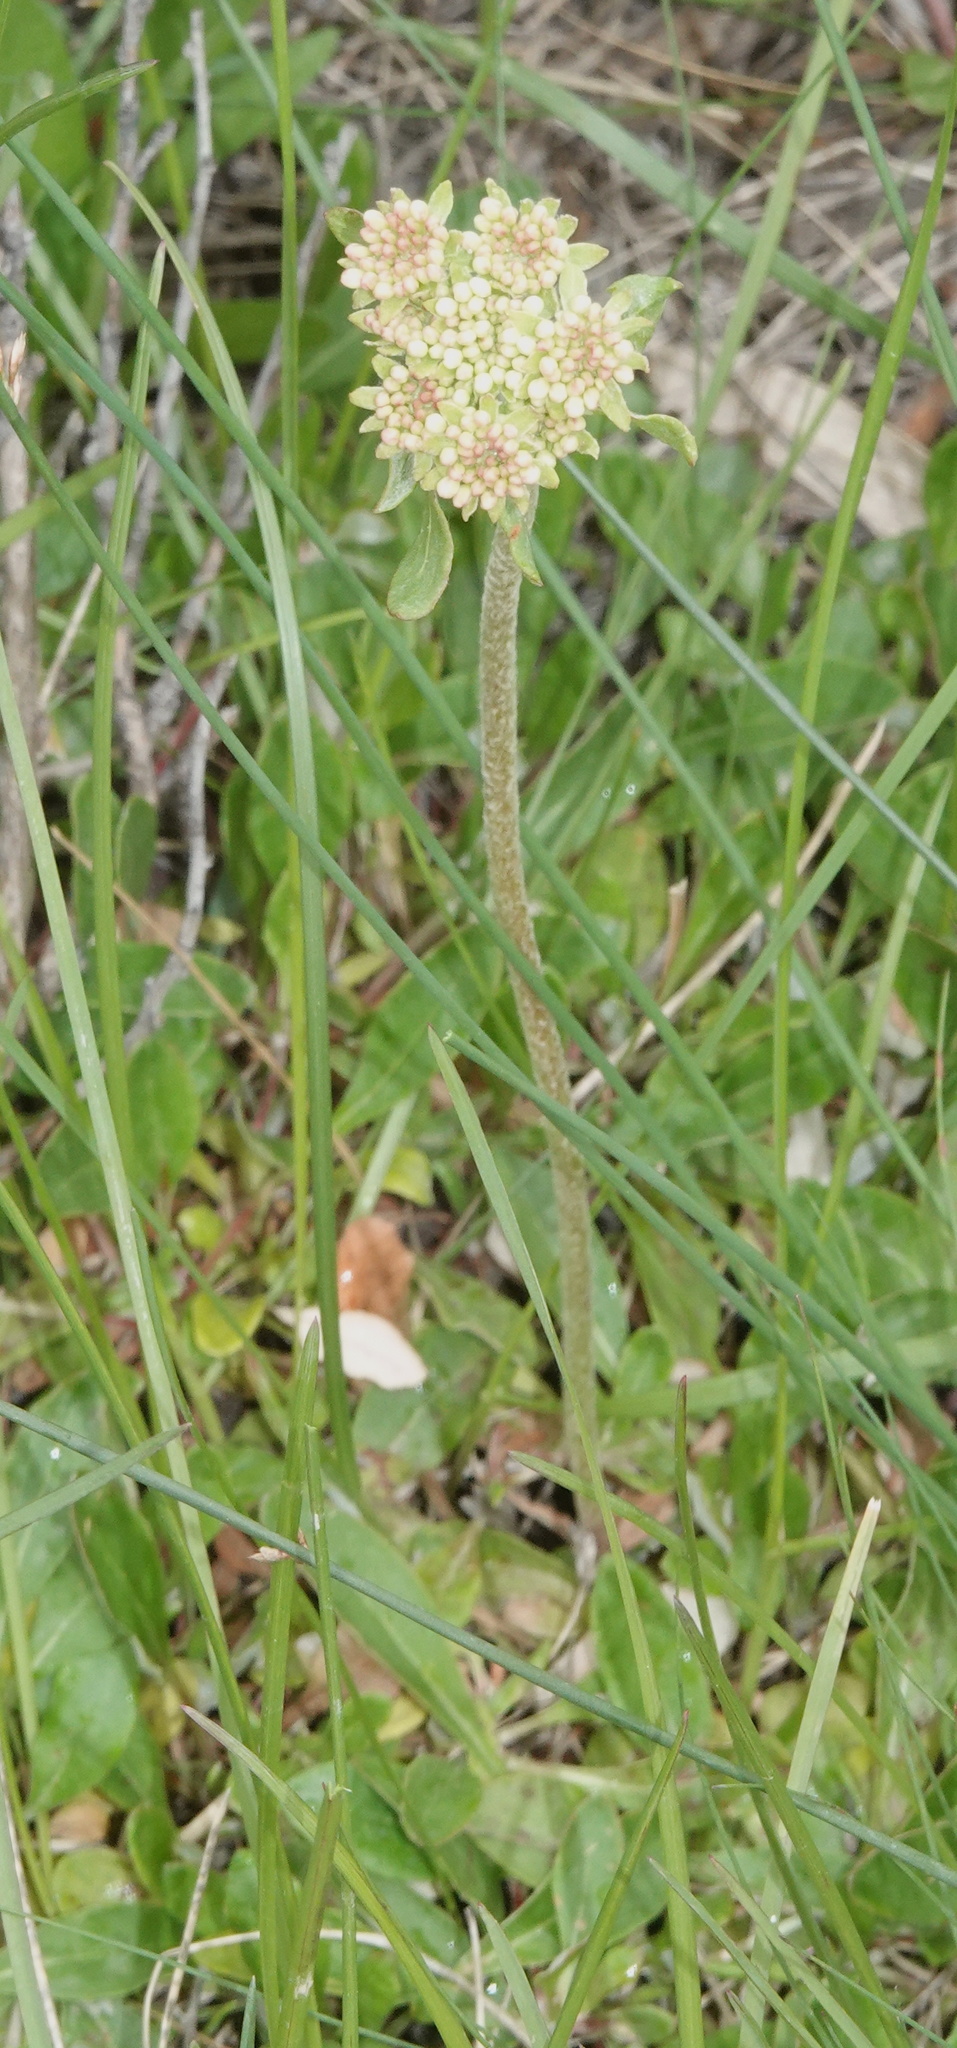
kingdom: Plantae
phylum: Tracheophyta
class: Magnoliopsida
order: Caryophyllales
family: Polygonaceae
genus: Eriogonum
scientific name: Eriogonum umbellatum
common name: Sulfur-buckwheat
